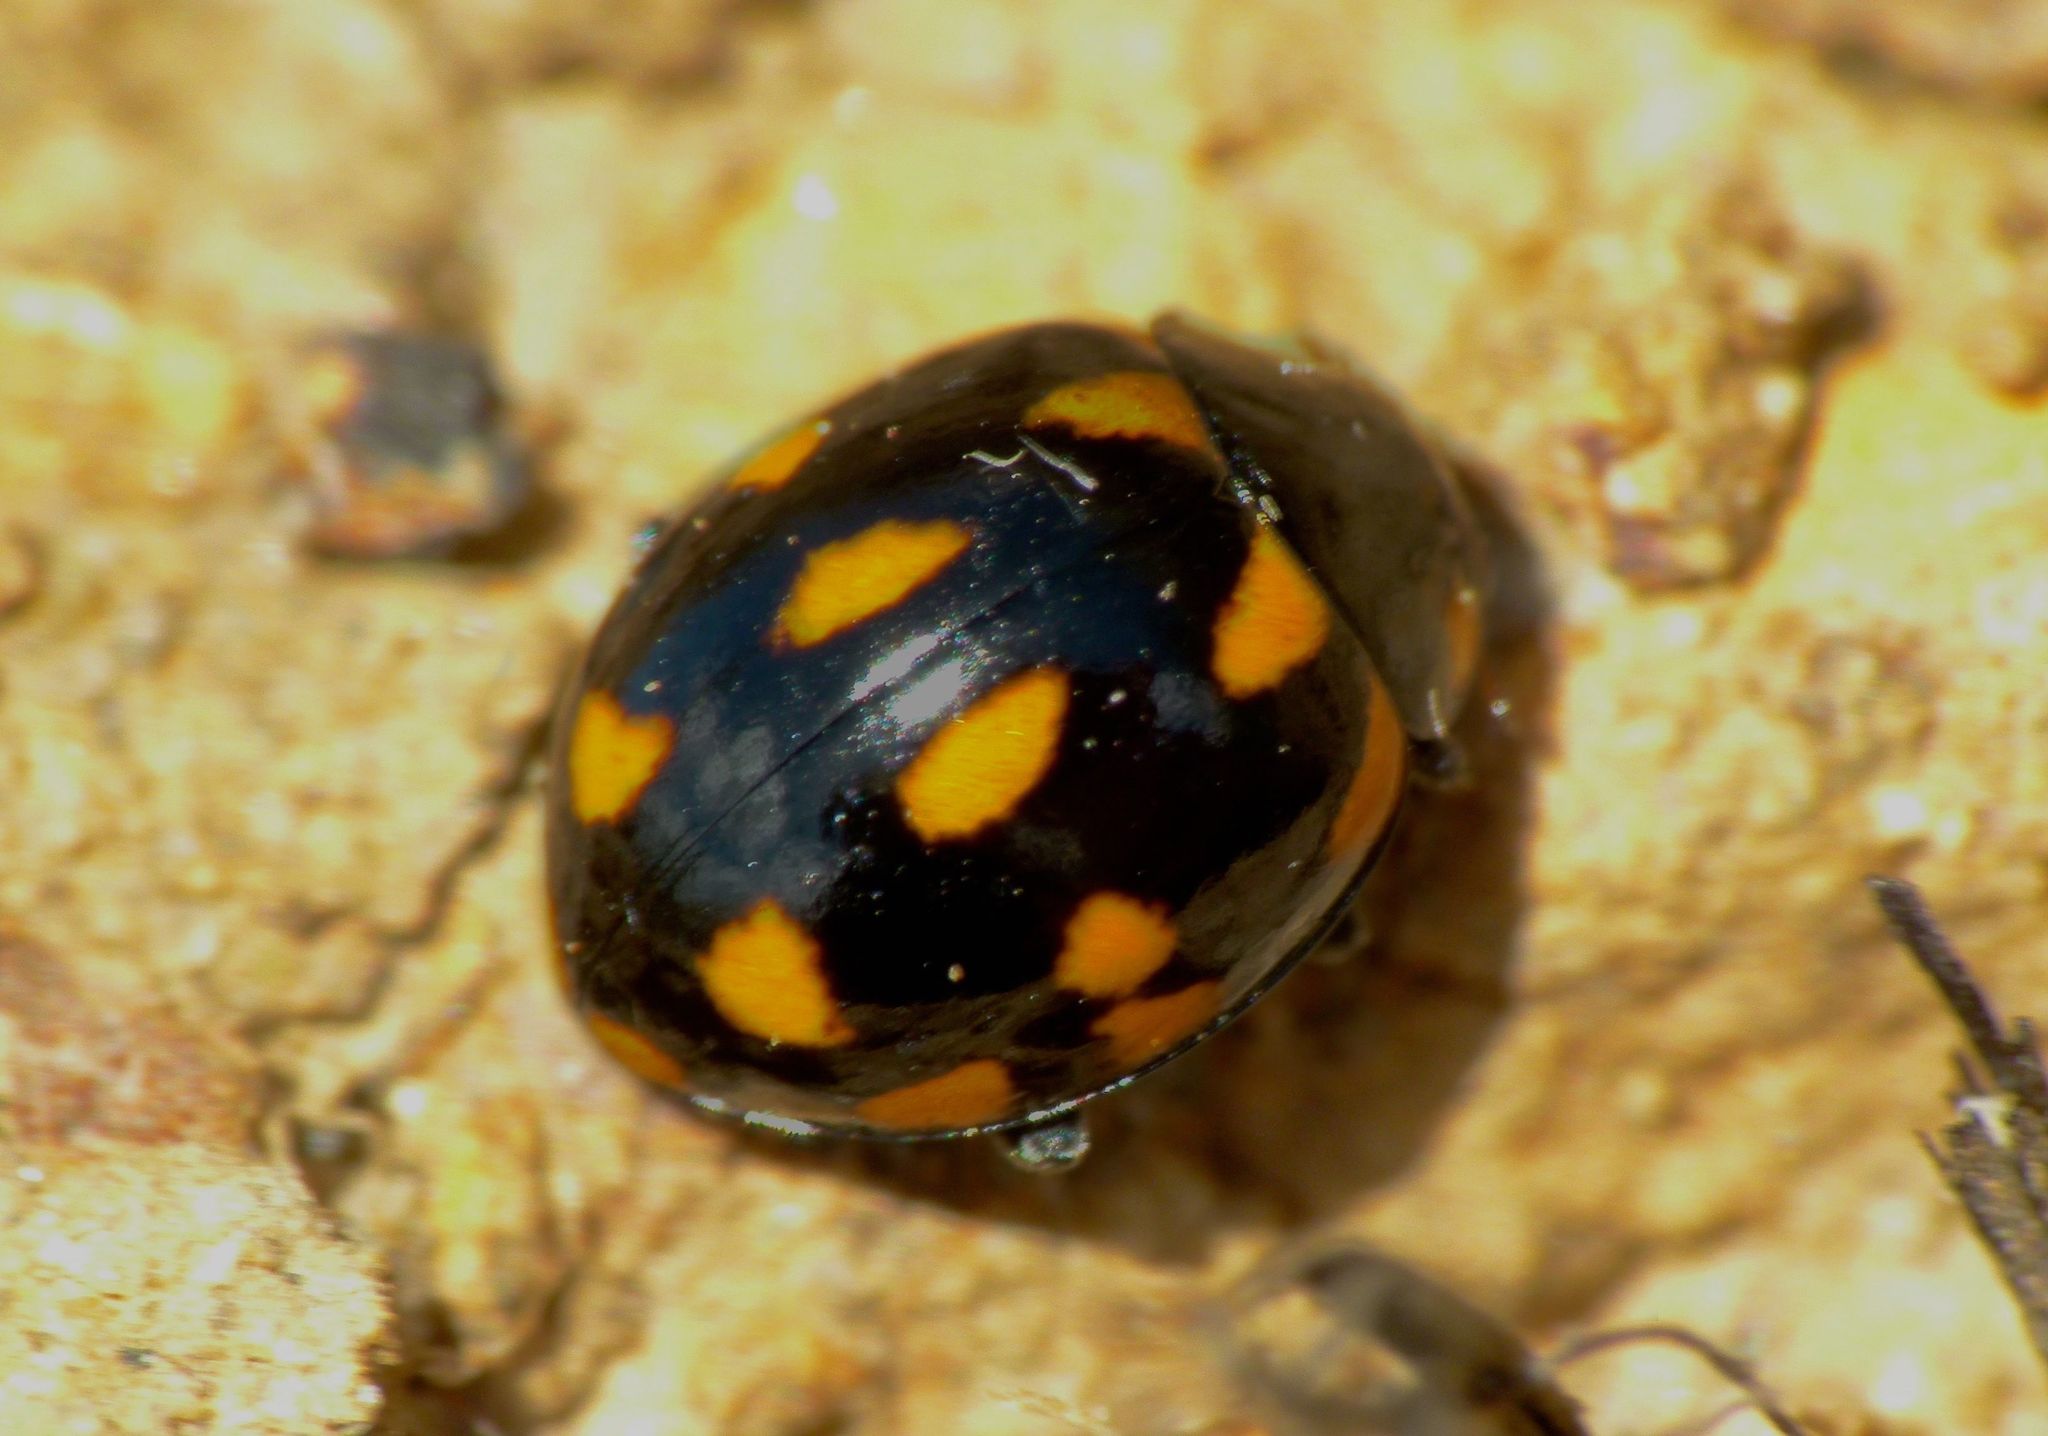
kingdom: Animalia
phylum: Arthropoda
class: Insecta
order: Coleoptera
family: Coccinellidae
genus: Coccinella
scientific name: Coccinella leonina
